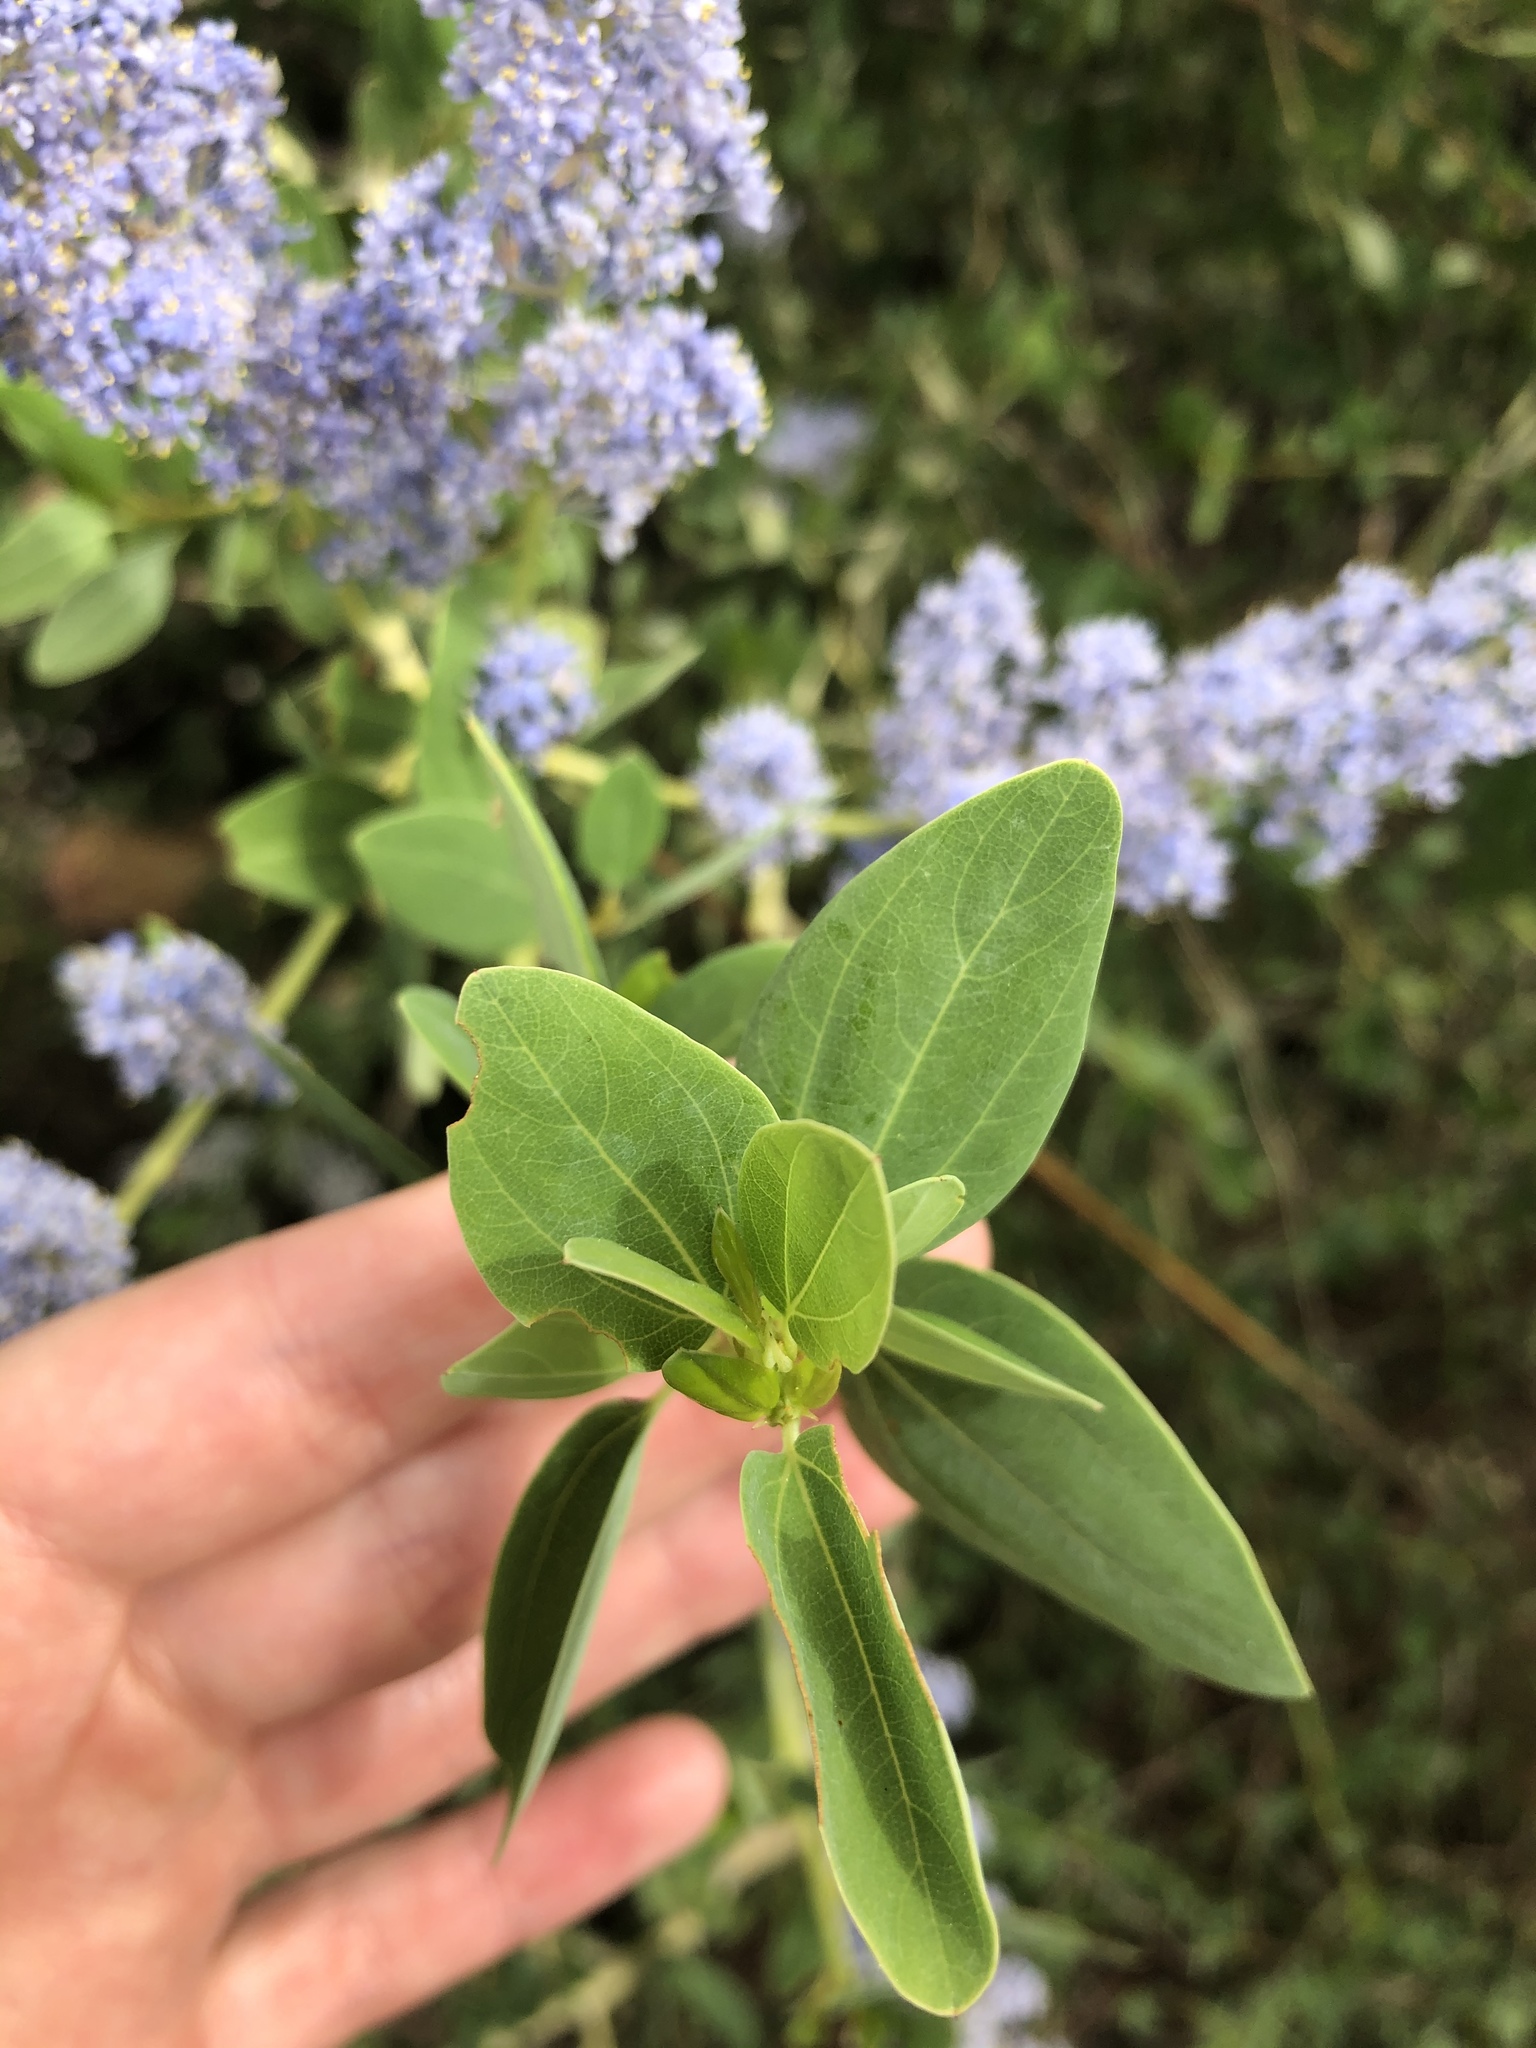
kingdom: Plantae
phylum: Tracheophyta
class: Magnoliopsida
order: Rosales
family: Rhamnaceae
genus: Ceanothus
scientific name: Ceanothus leucodermis
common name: Chaparral whitethorn
